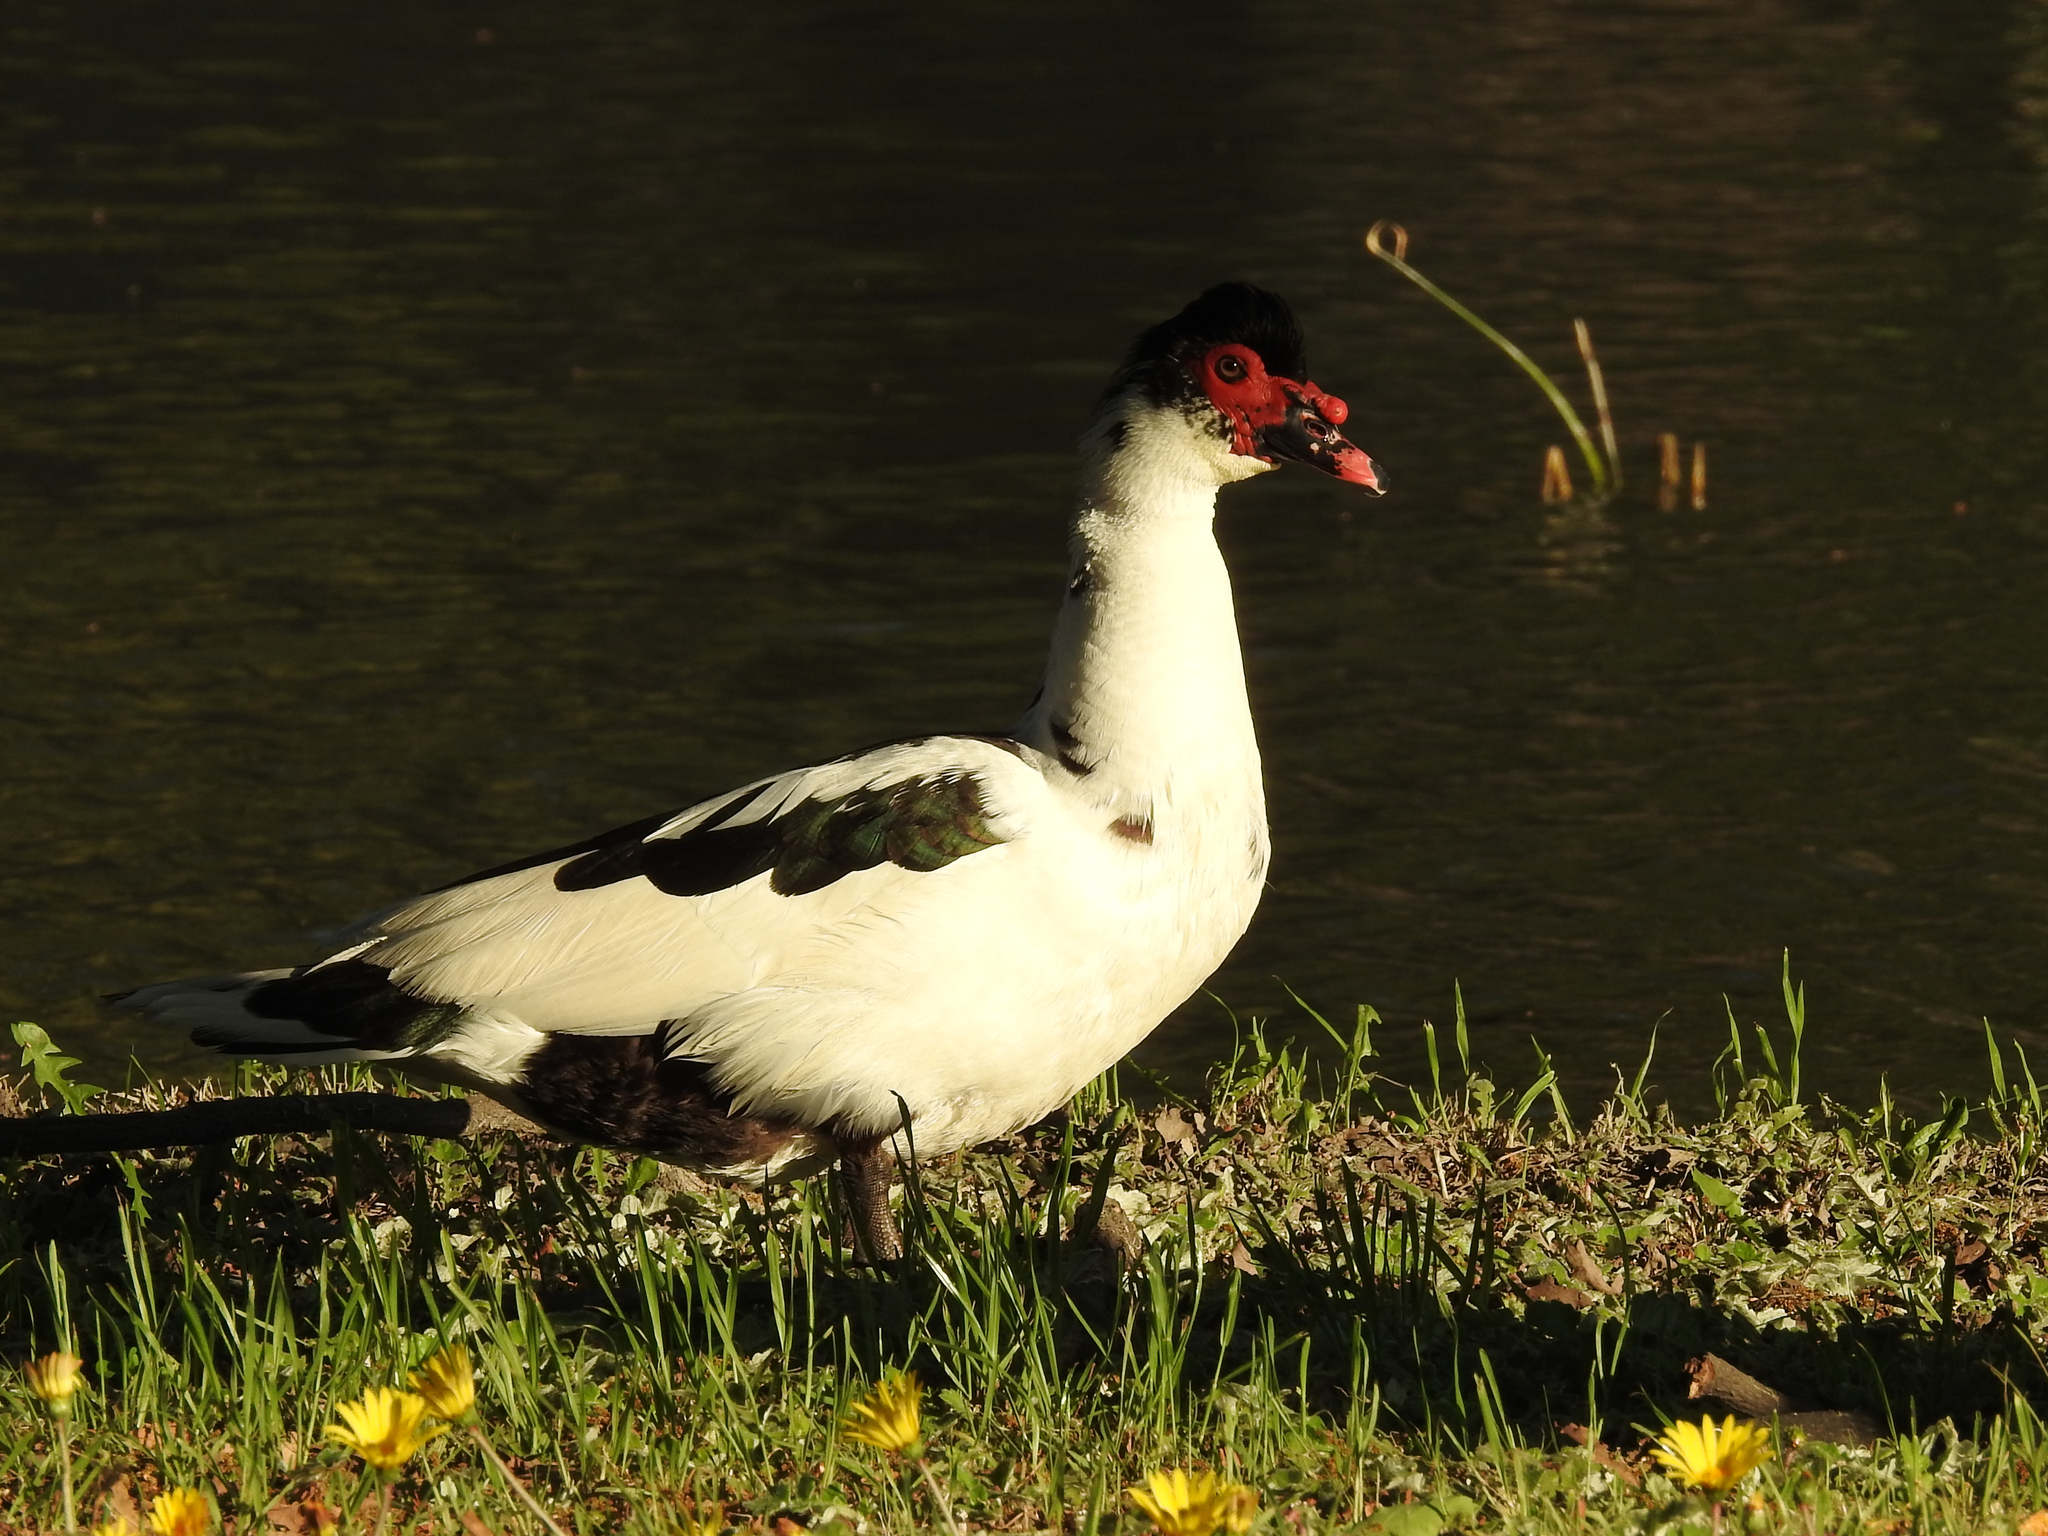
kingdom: Animalia
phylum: Chordata
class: Aves
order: Anseriformes
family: Anatidae
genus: Cairina
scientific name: Cairina moschata
